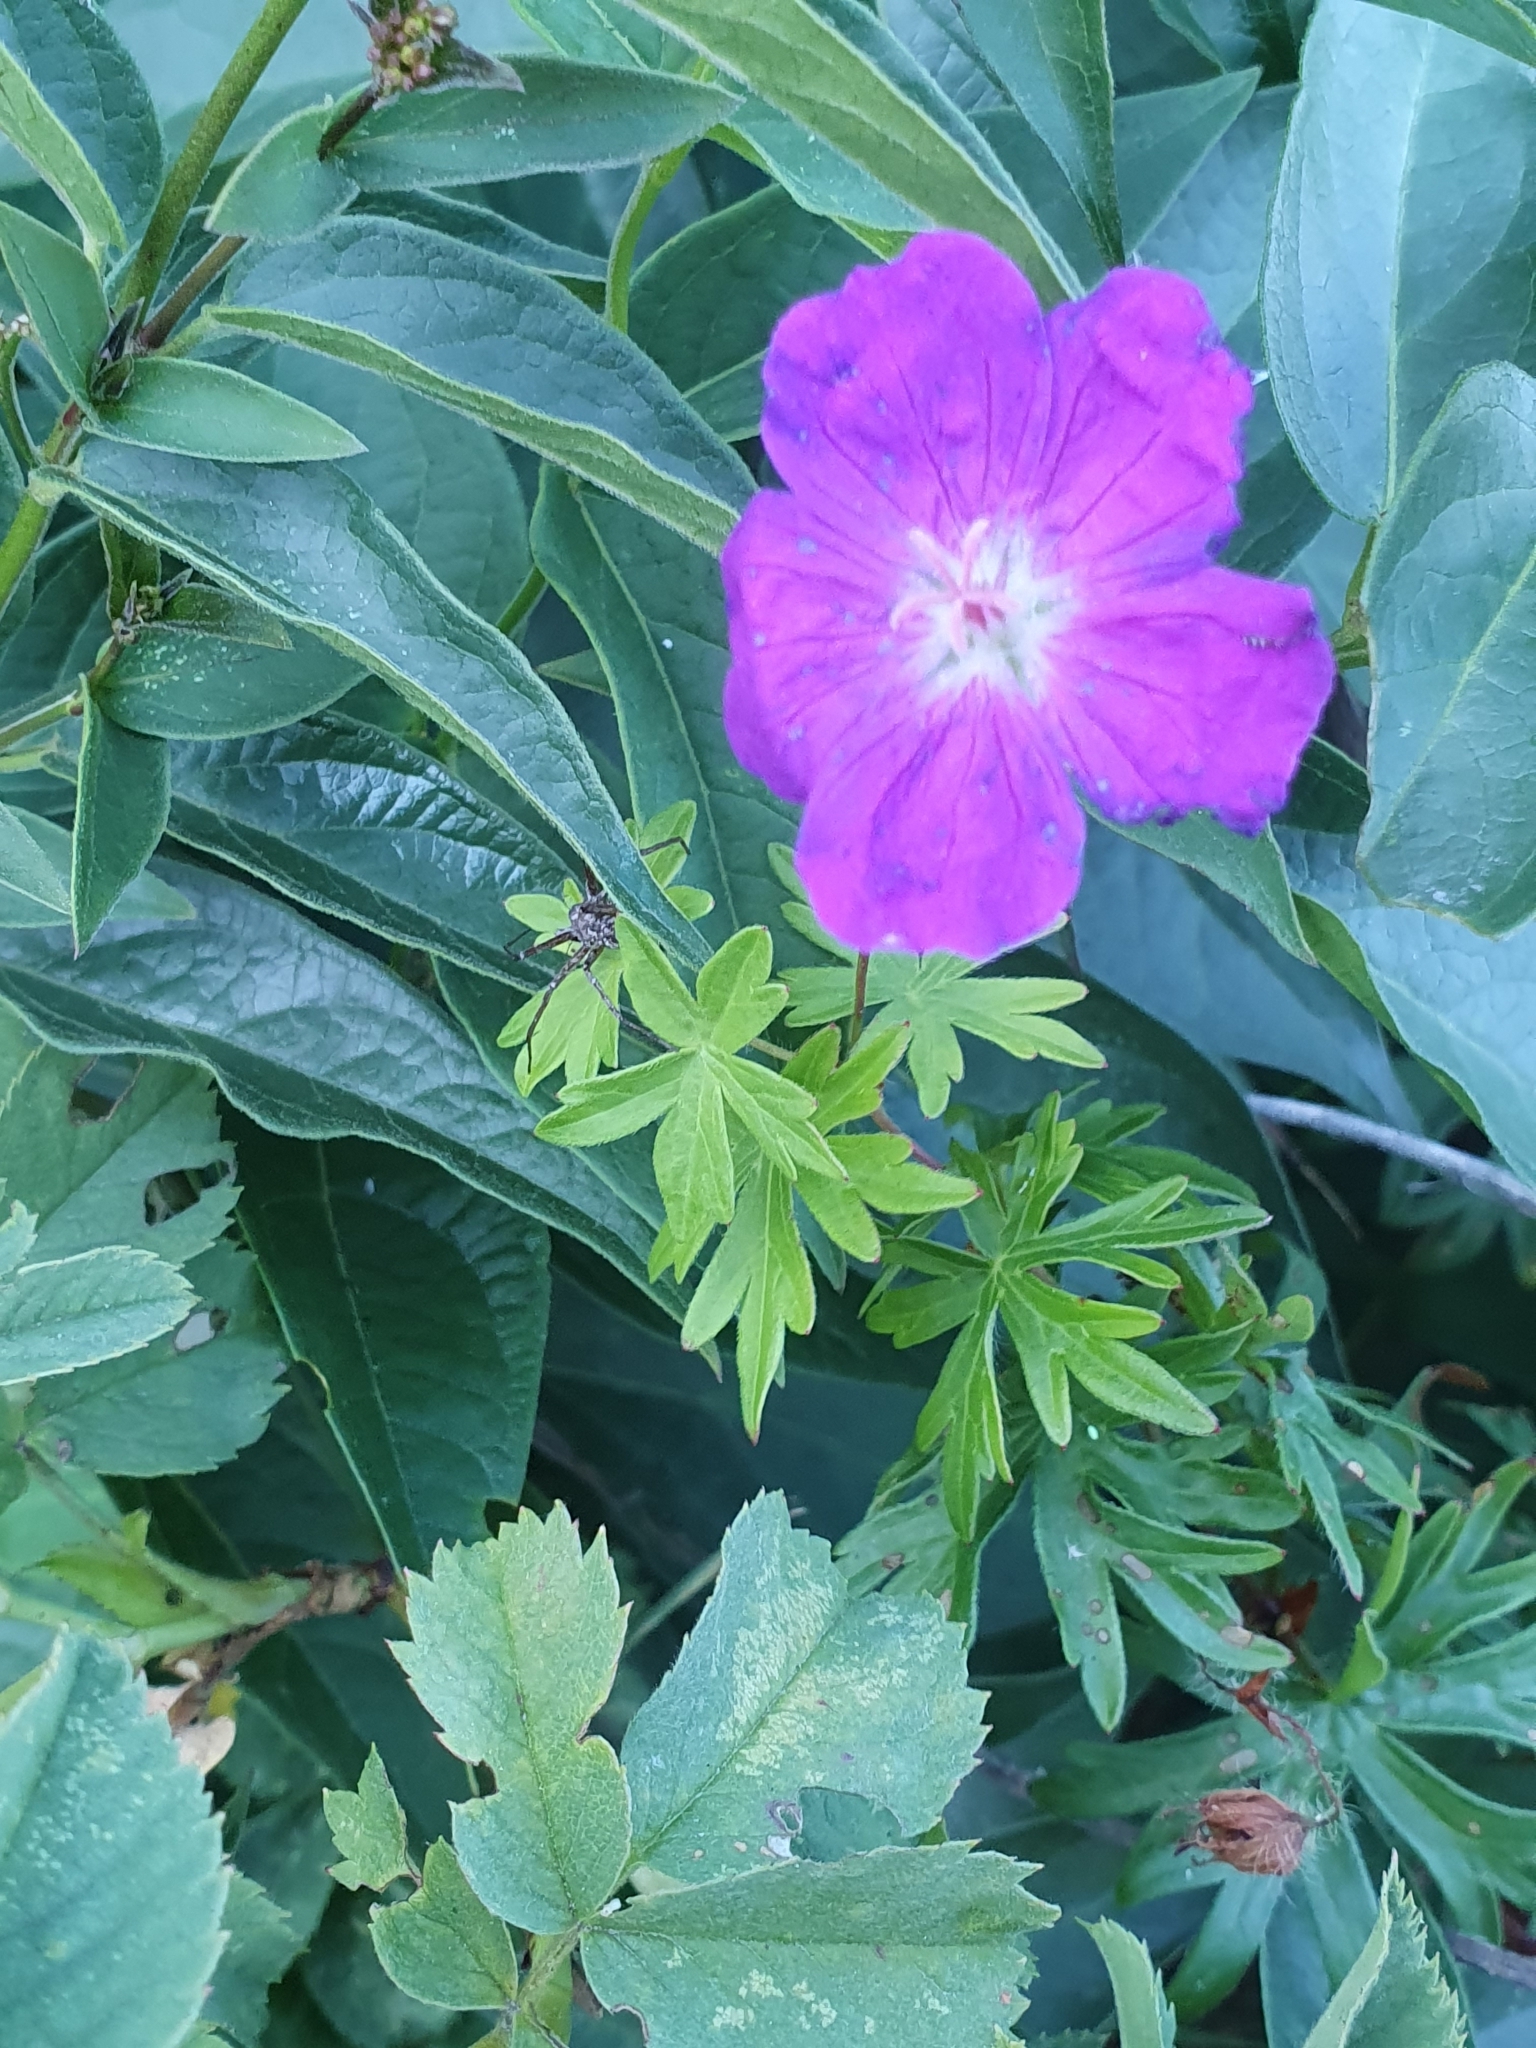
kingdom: Plantae
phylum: Tracheophyta
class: Magnoliopsida
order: Geraniales
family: Geraniaceae
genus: Geranium
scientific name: Geranium sanguineum
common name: Bloody crane's-bill
